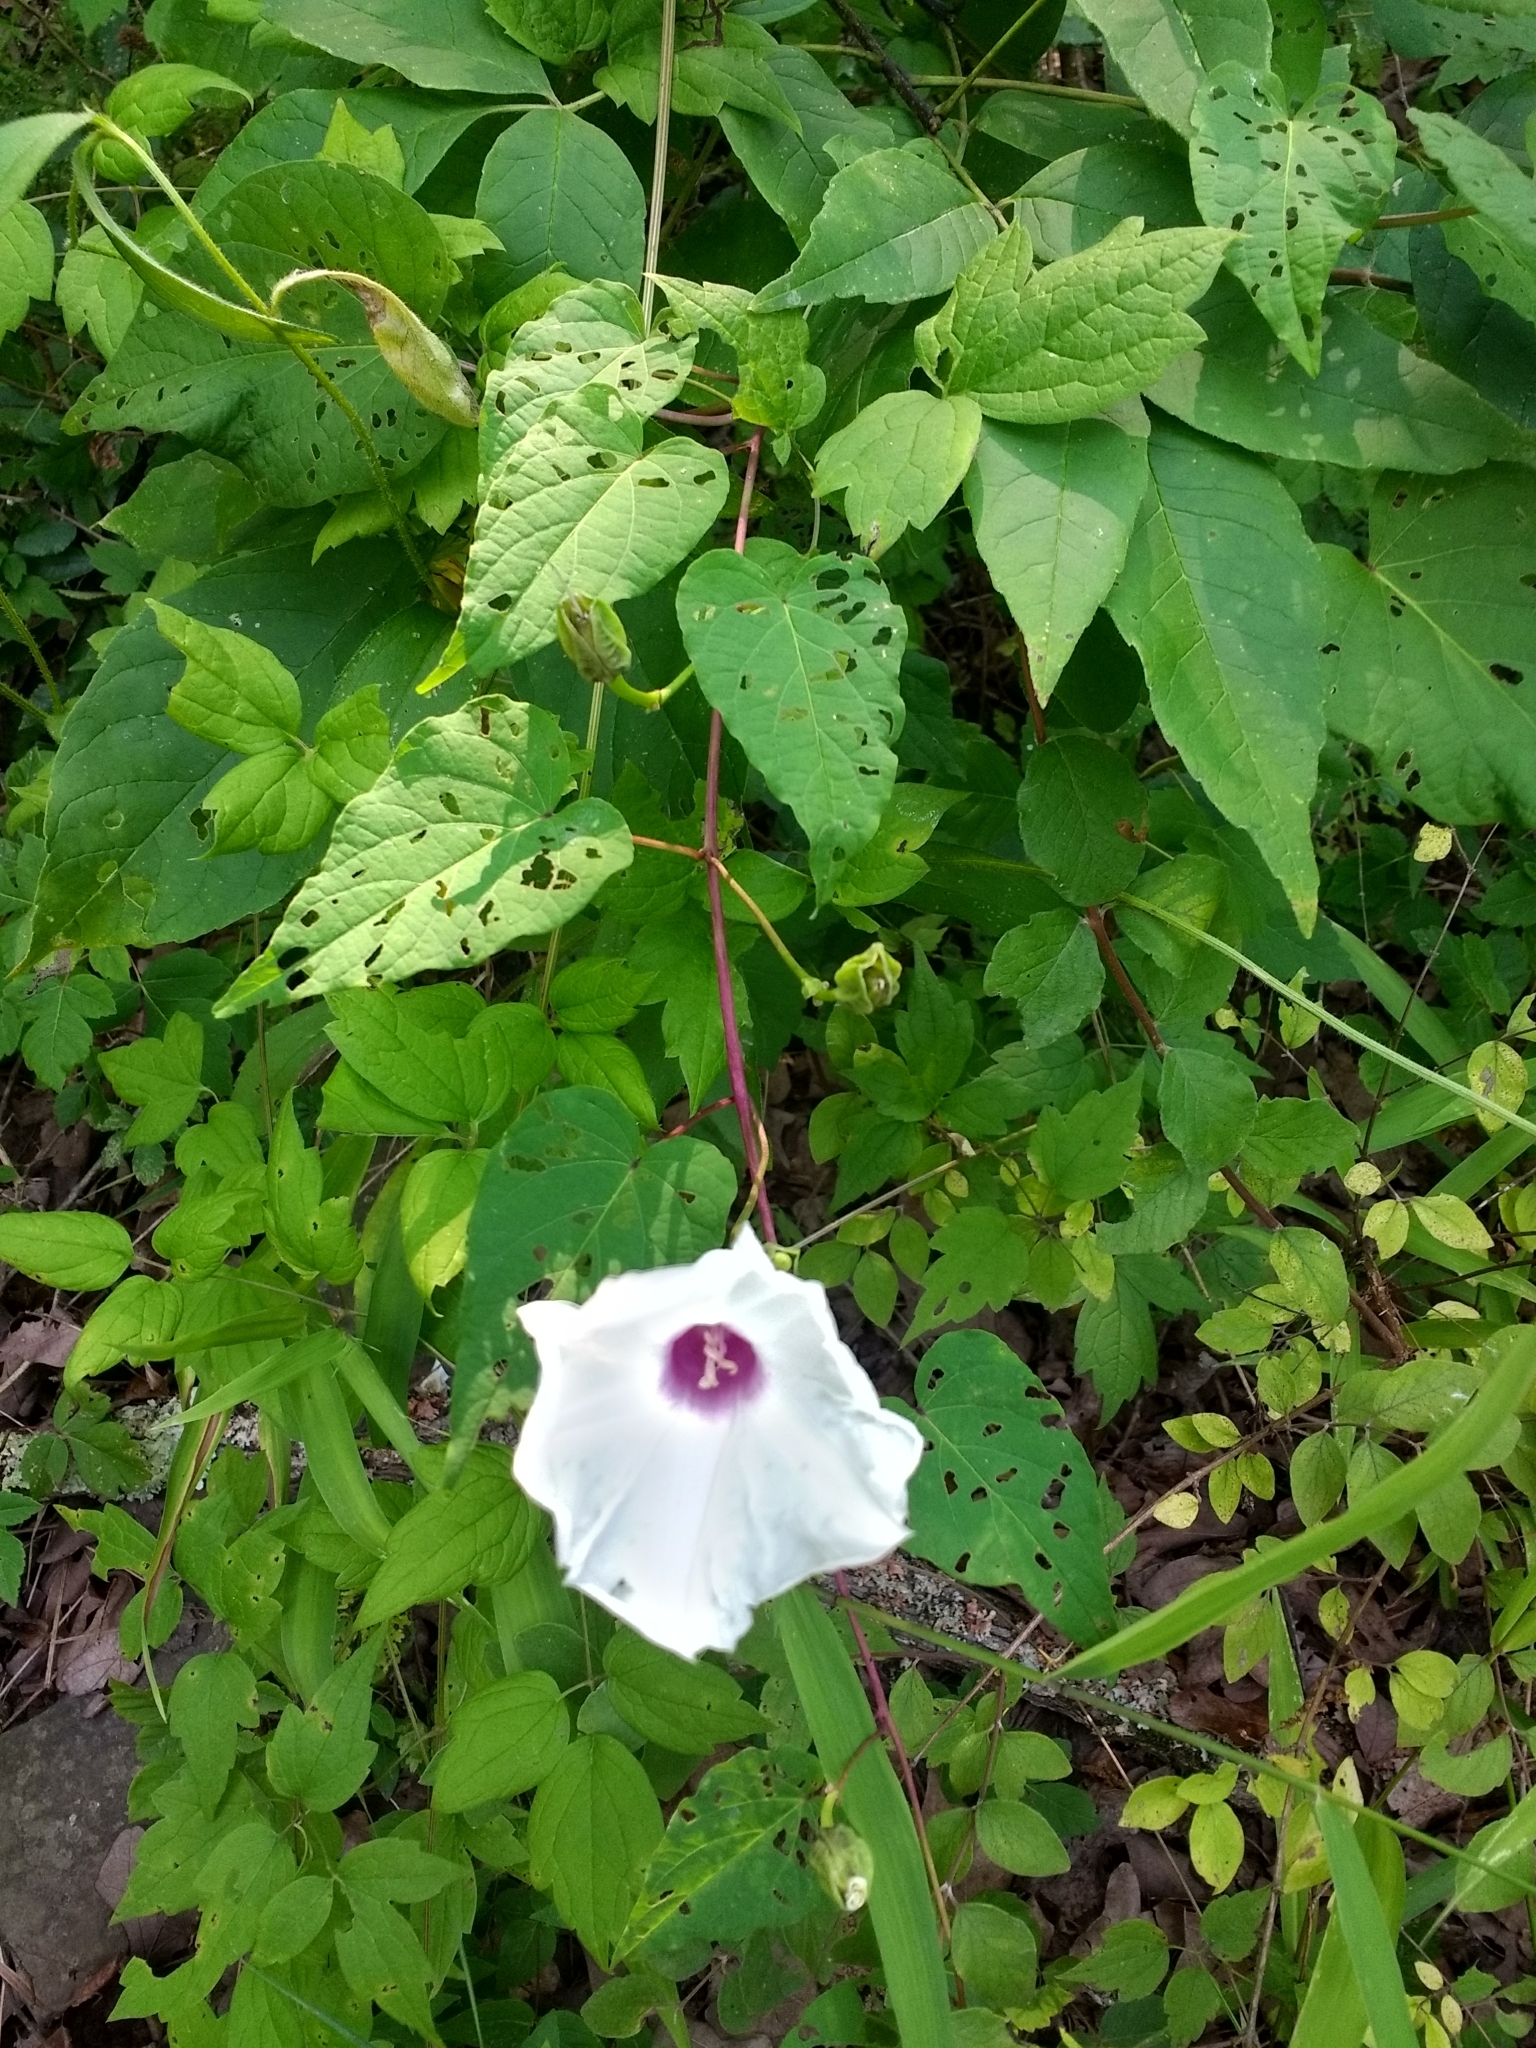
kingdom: Plantae
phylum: Tracheophyta
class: Magnoliopsida
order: Solanales
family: Convolvulaceae
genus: Ipomoea
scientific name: Ipomoea pandurata
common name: Man-of-the-earth
